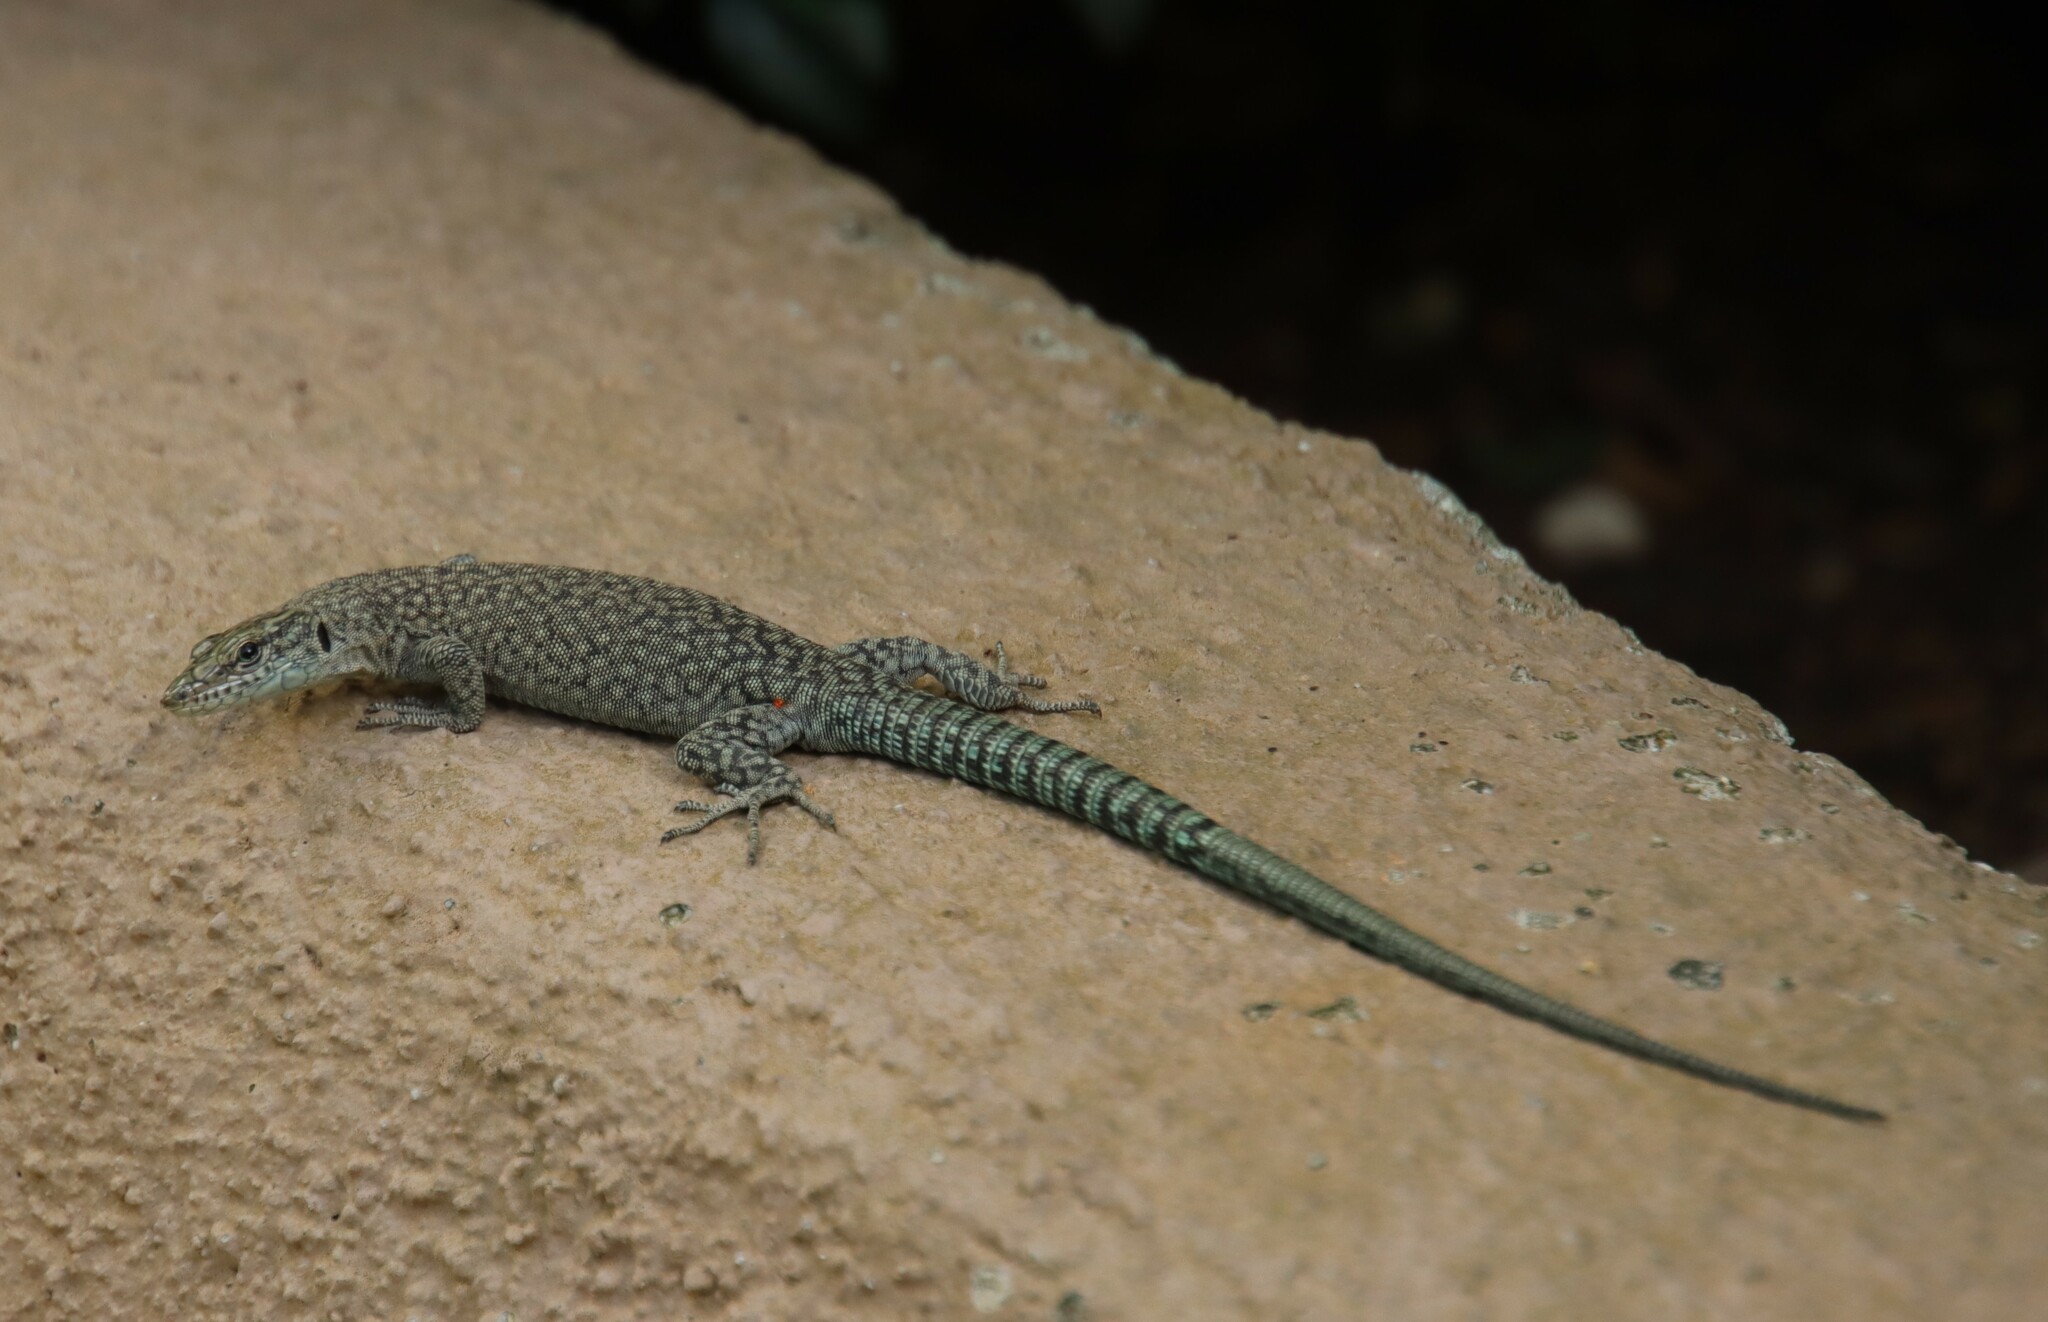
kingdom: Animalia
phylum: Chordata
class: Squamata
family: Lacertidae
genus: Dalmatolacerta
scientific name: Dalmatolacerta oxycephala
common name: Sharp-snouted rock lizard
